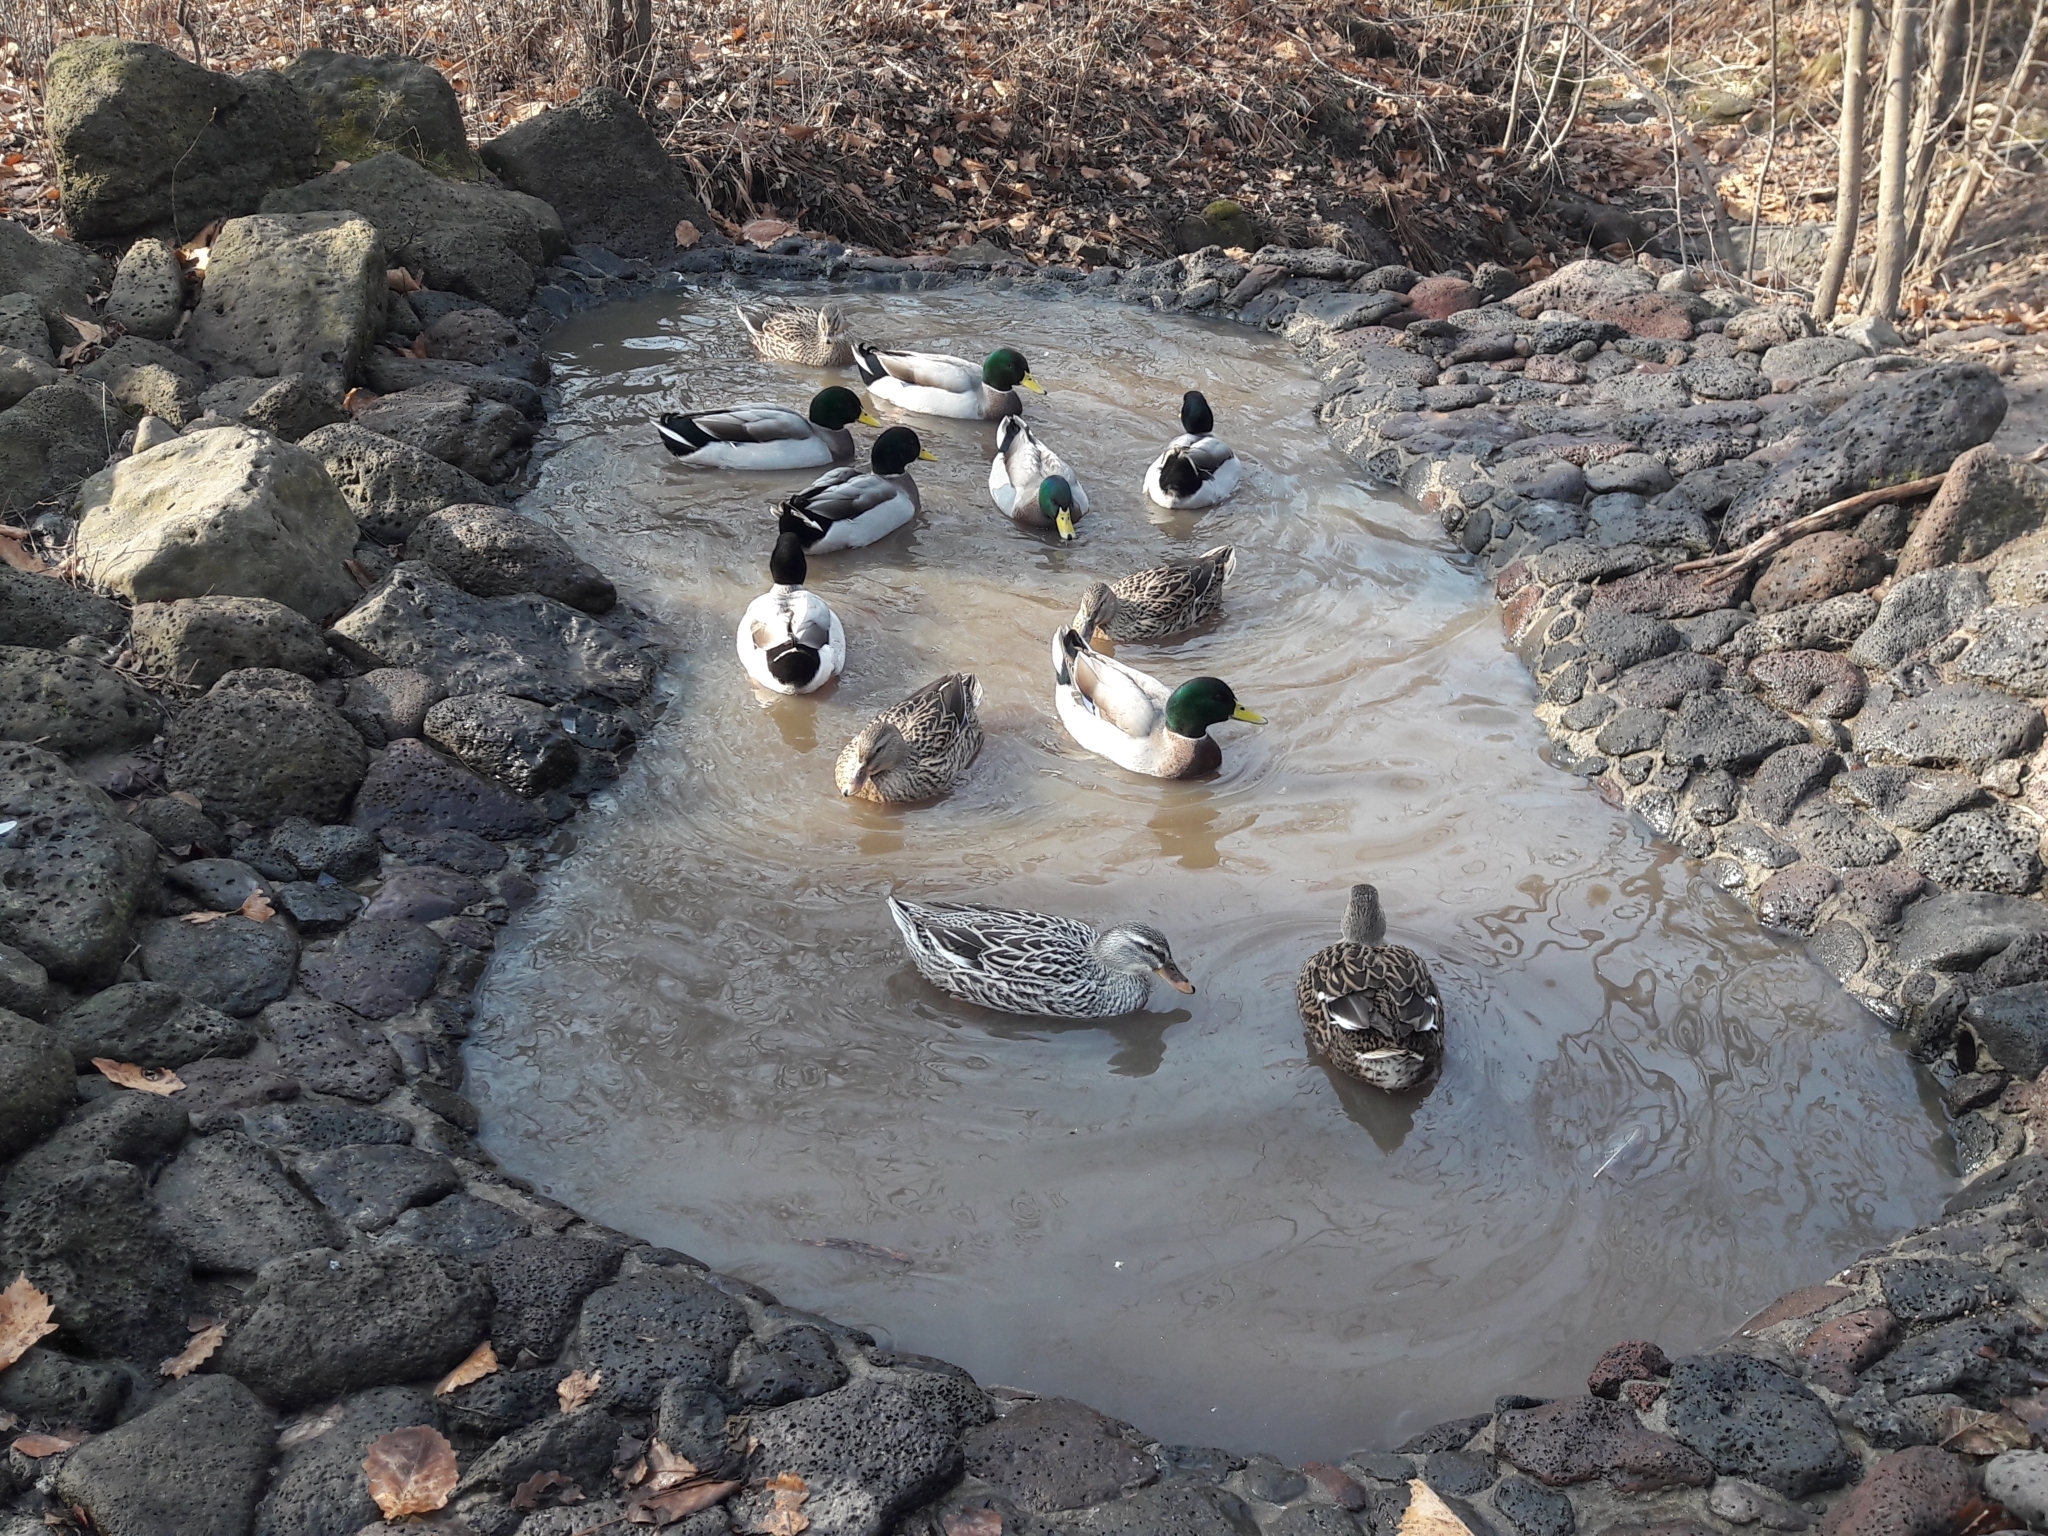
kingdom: Animalia
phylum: Chordata
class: Aves
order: Anseriformes
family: Anatidae
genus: Anas
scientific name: Anas platyrhynchos
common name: Mallard
